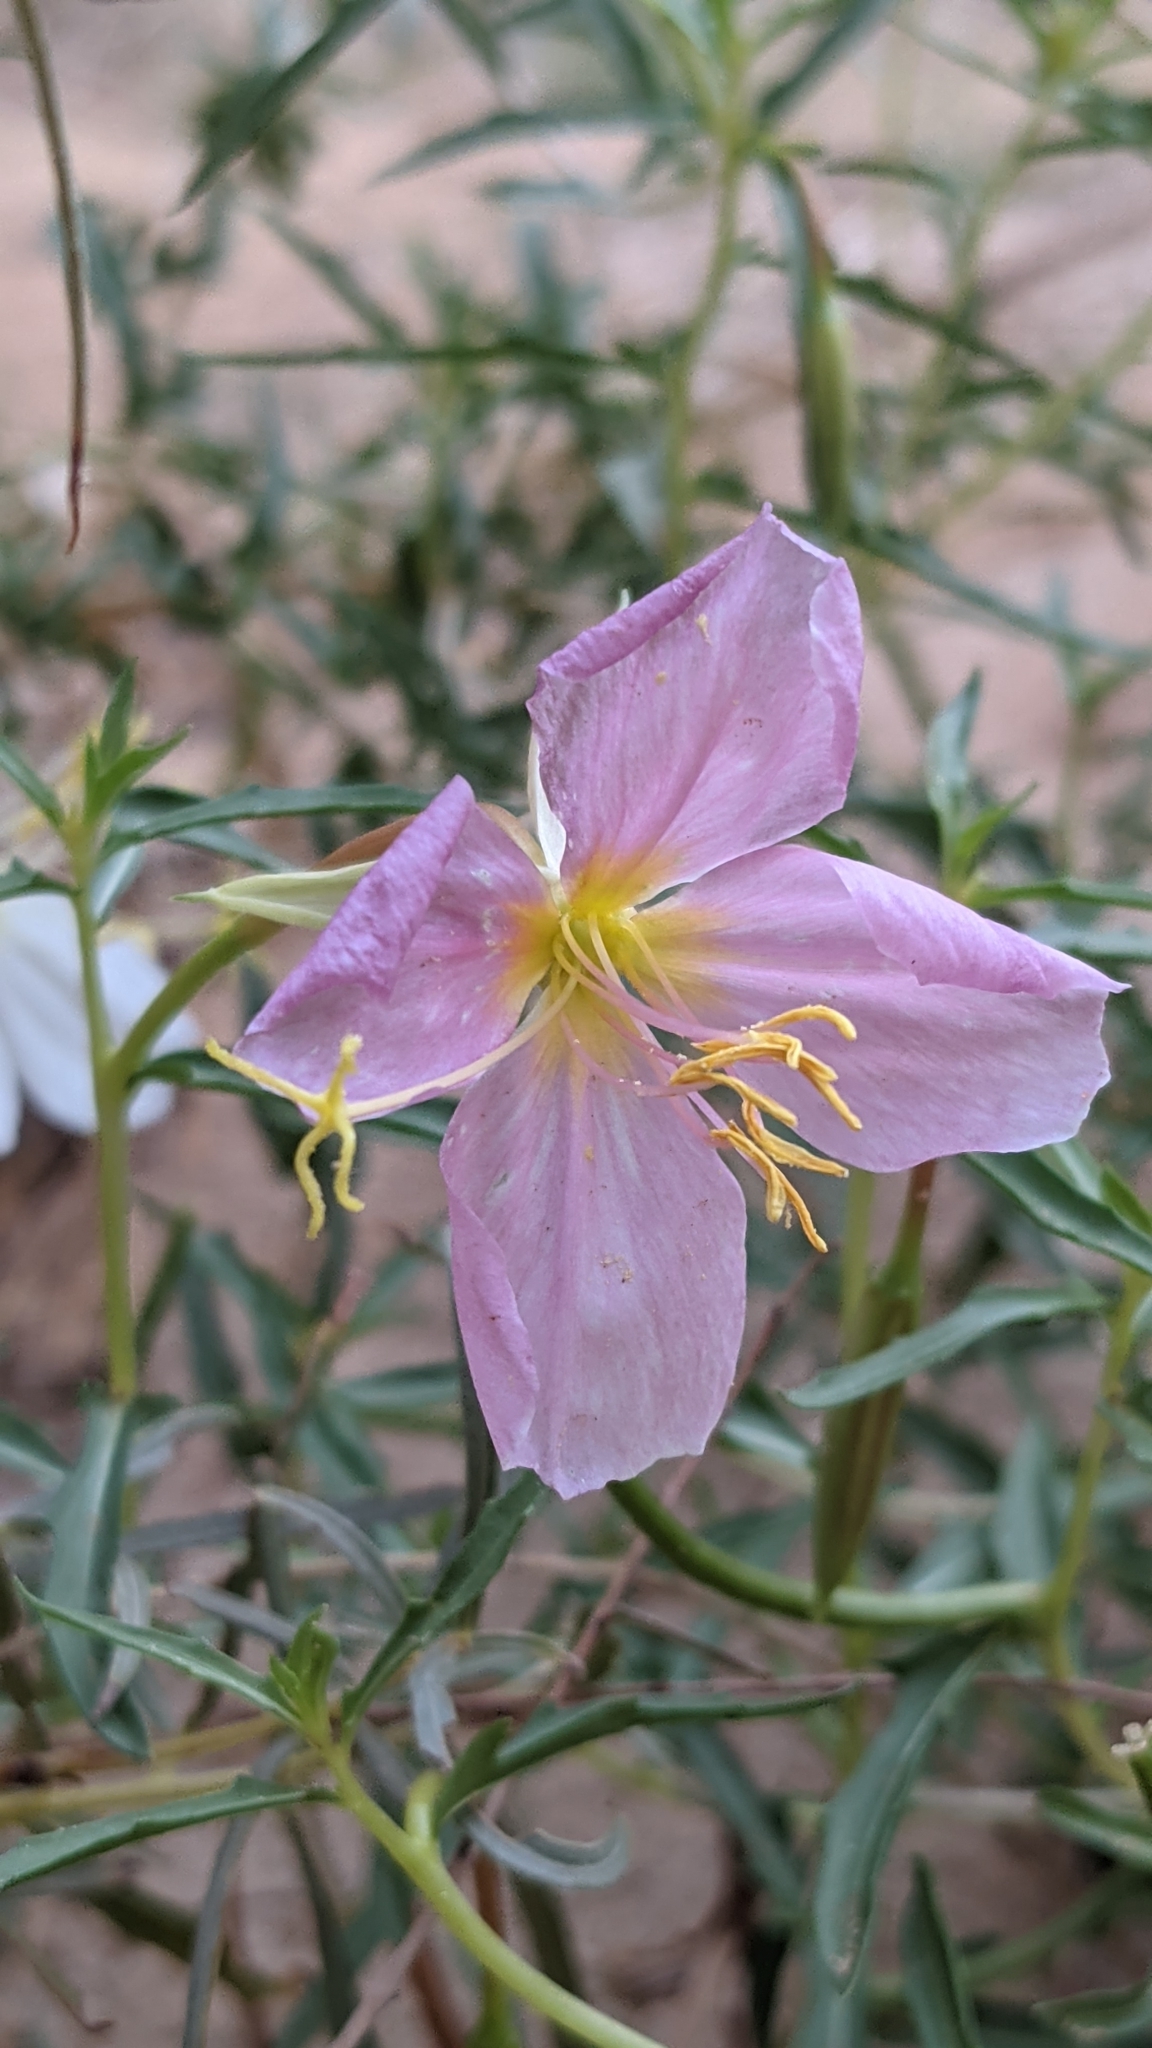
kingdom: Plantae
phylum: Tracheophyta
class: Magnoliopsida
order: Myrtales
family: Onagraceae
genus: Oenothera
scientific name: Oenothera pallida
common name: Pale evening-primrose
